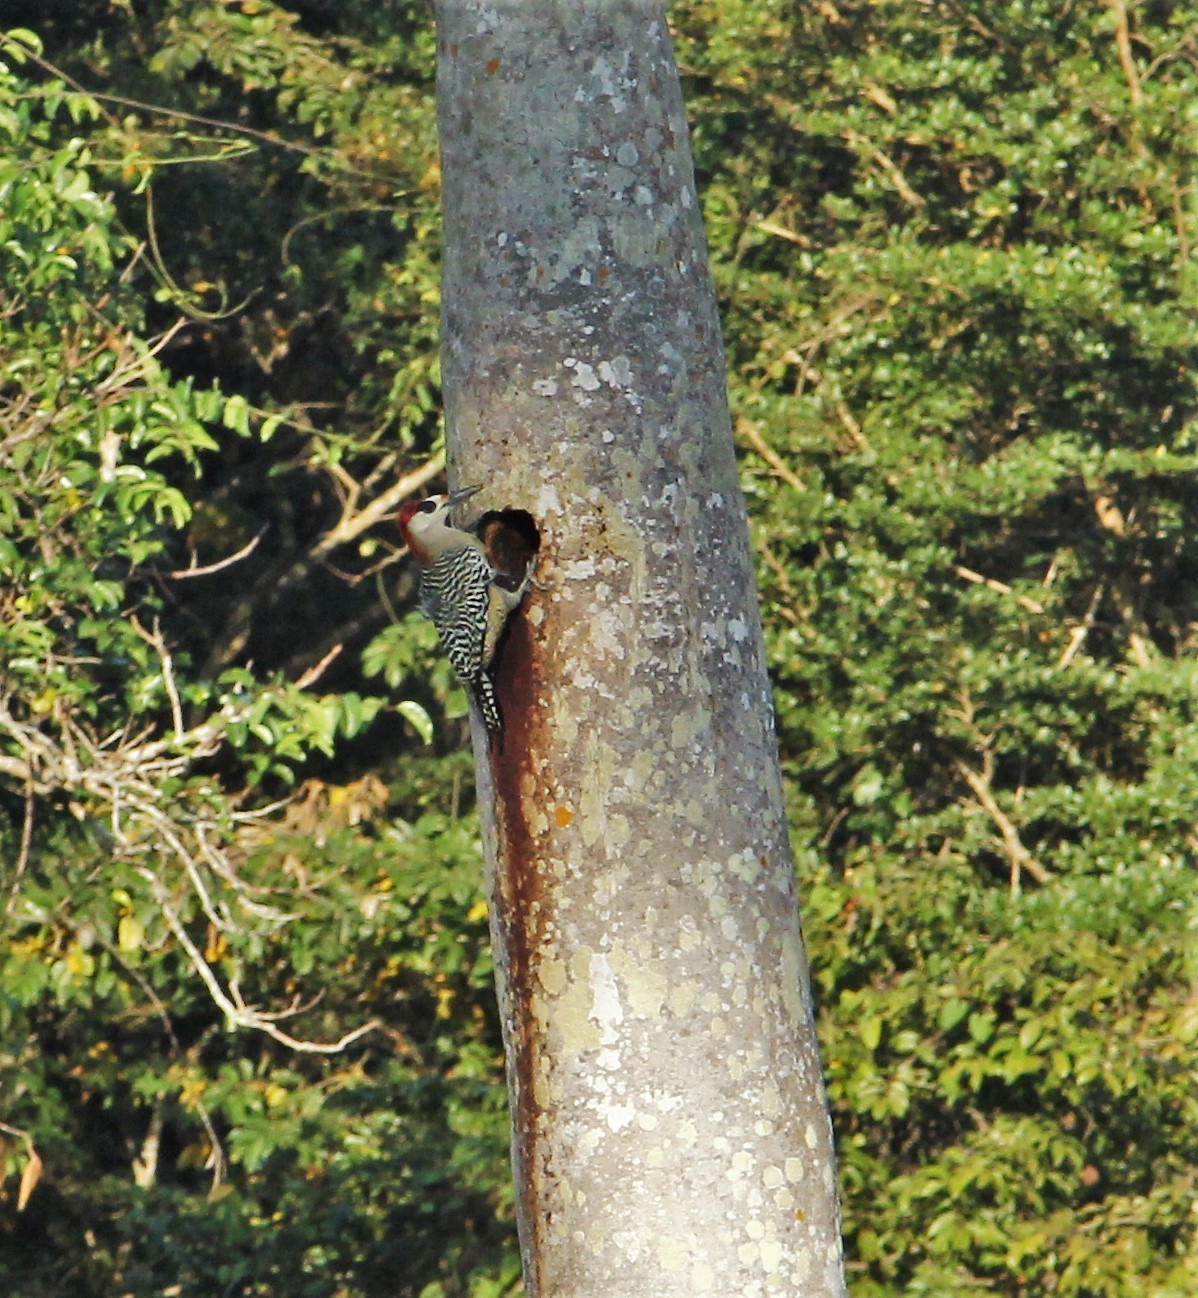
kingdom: Animalia
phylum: Chordata
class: Aves
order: Piciformes
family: Picidae
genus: Melanerpes
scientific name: Melanerpes superciliaris
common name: West indian woodpecker
